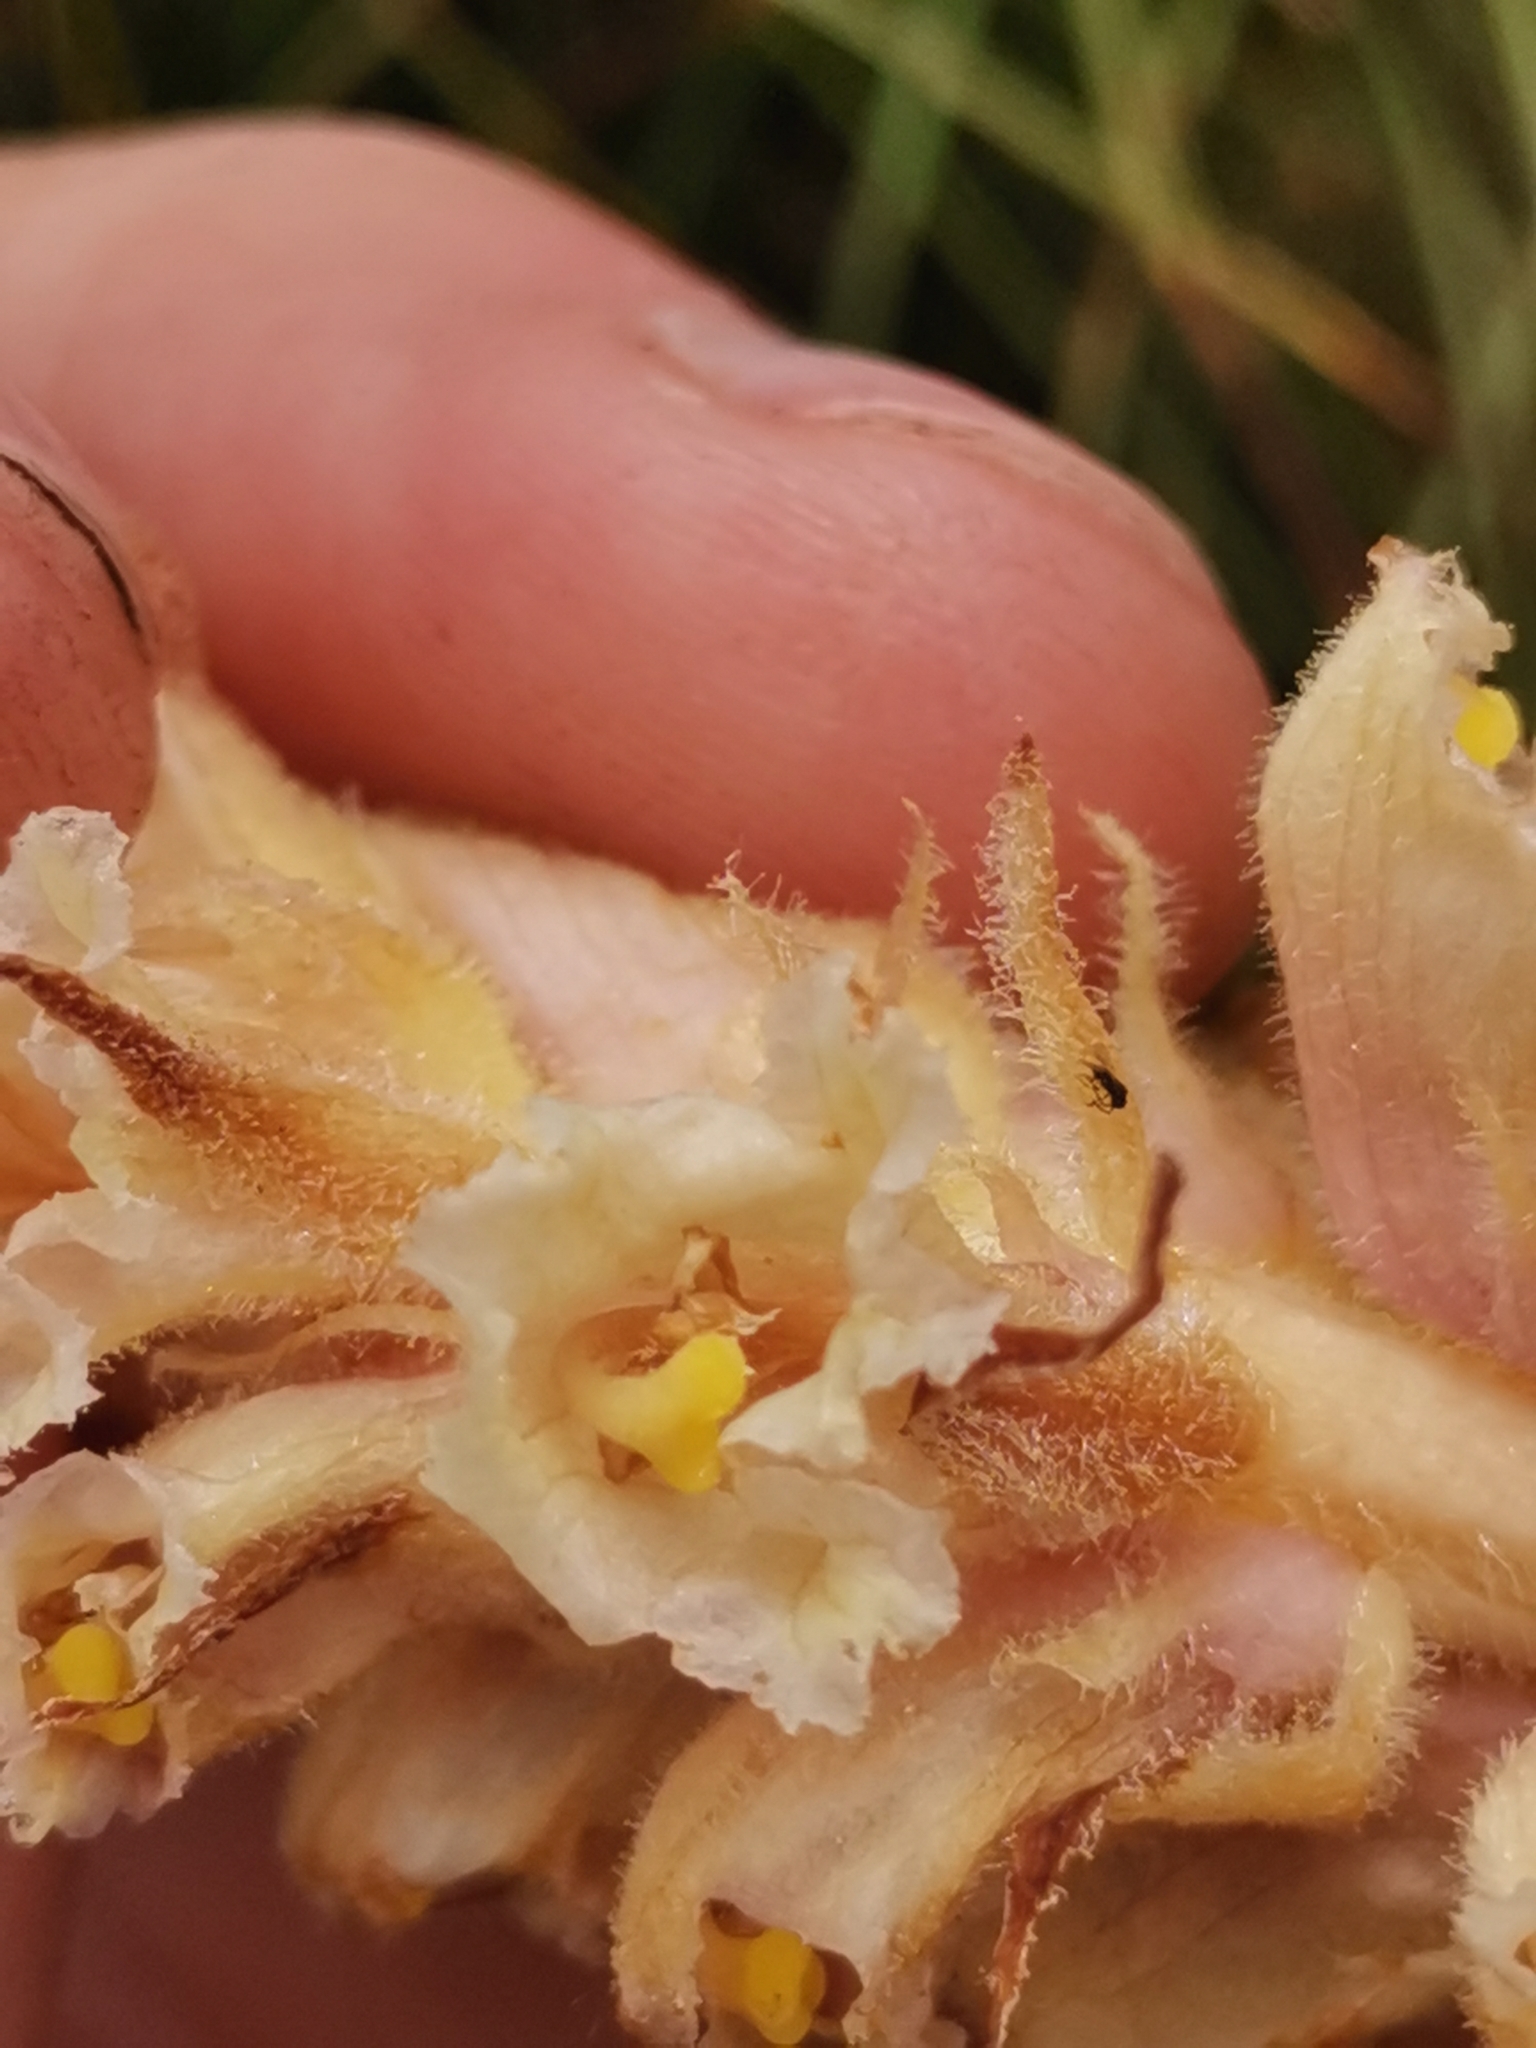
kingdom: Plantae
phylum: Tracheophyta
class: Magnoliopsida
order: Lamiales
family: Orobanchaceae
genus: Orobanche
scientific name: Orobanche alsatica
